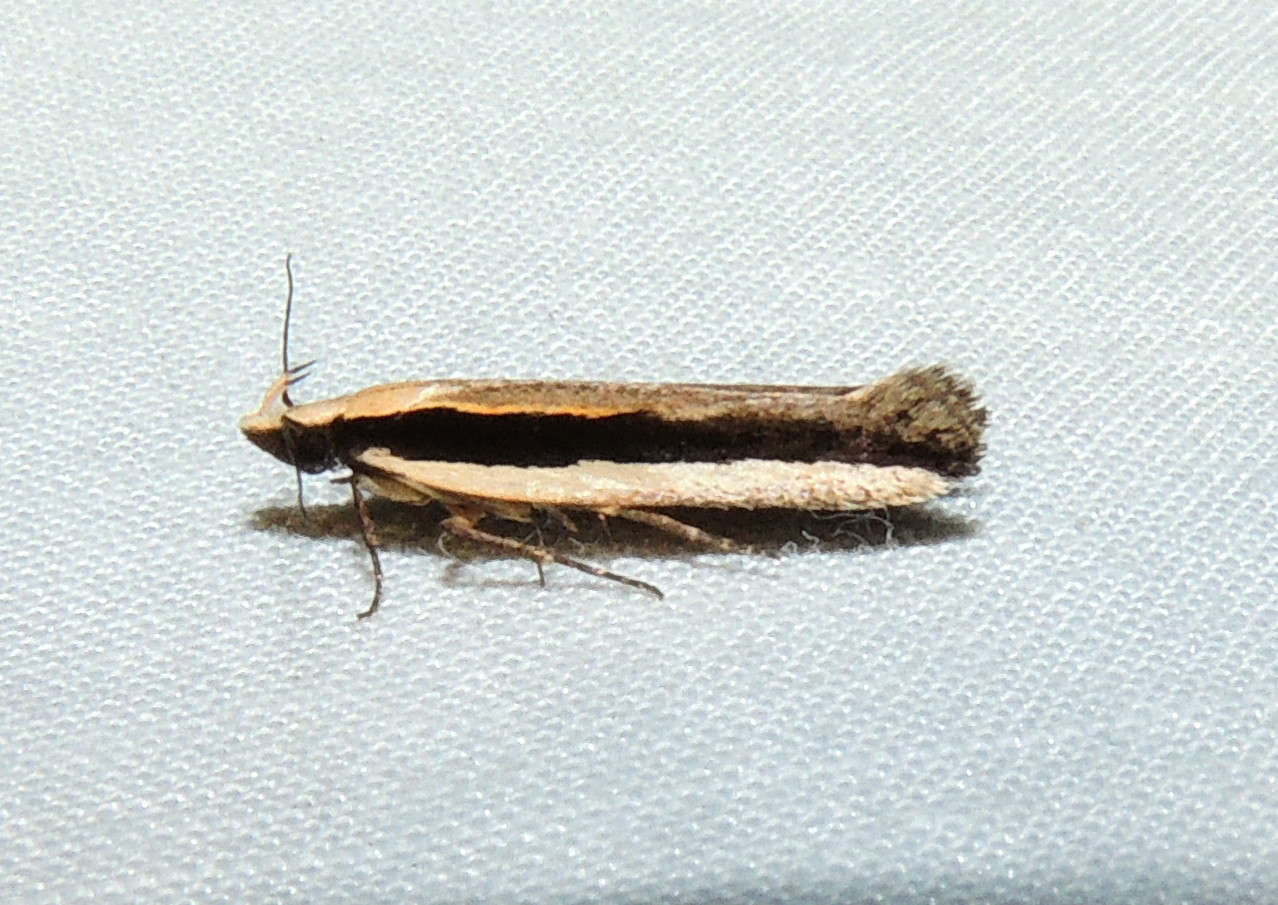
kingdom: Animalia
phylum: Arthropoda
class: Insecta
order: Lepidoptera
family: Gelechiidae
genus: Macrenches
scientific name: Macrenches clerica
